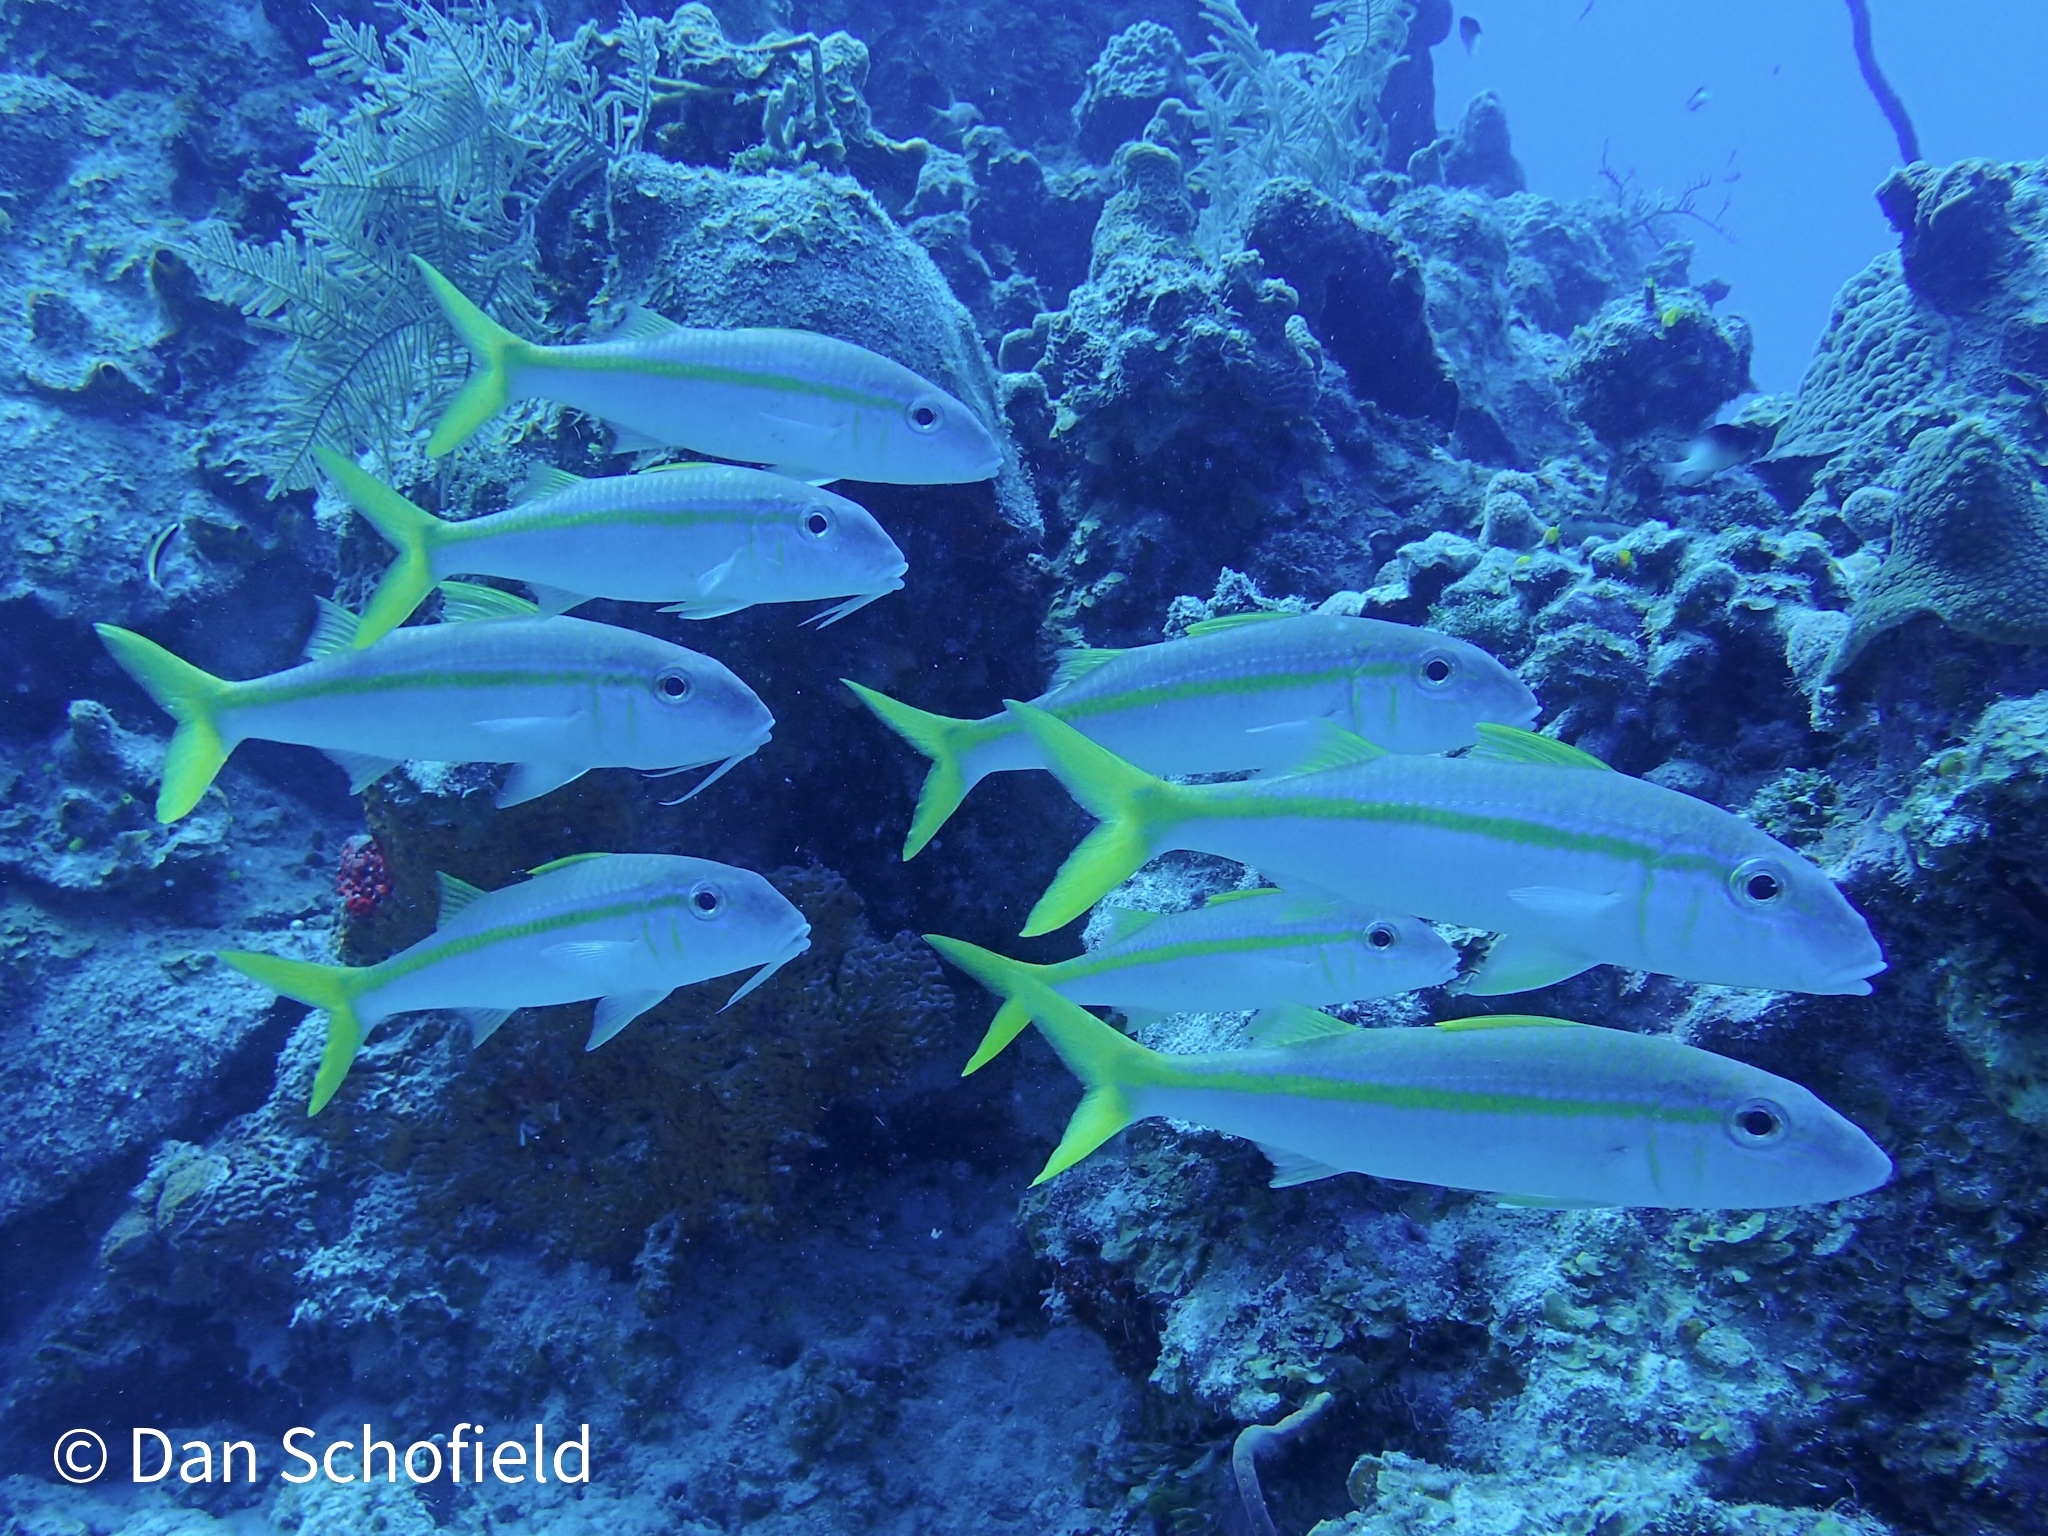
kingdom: Animalia
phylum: Chordata
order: Perciformes
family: Mullidae
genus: Mulloidichthys
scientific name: Mulloidichthys martinicus
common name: Yellow goatfish
